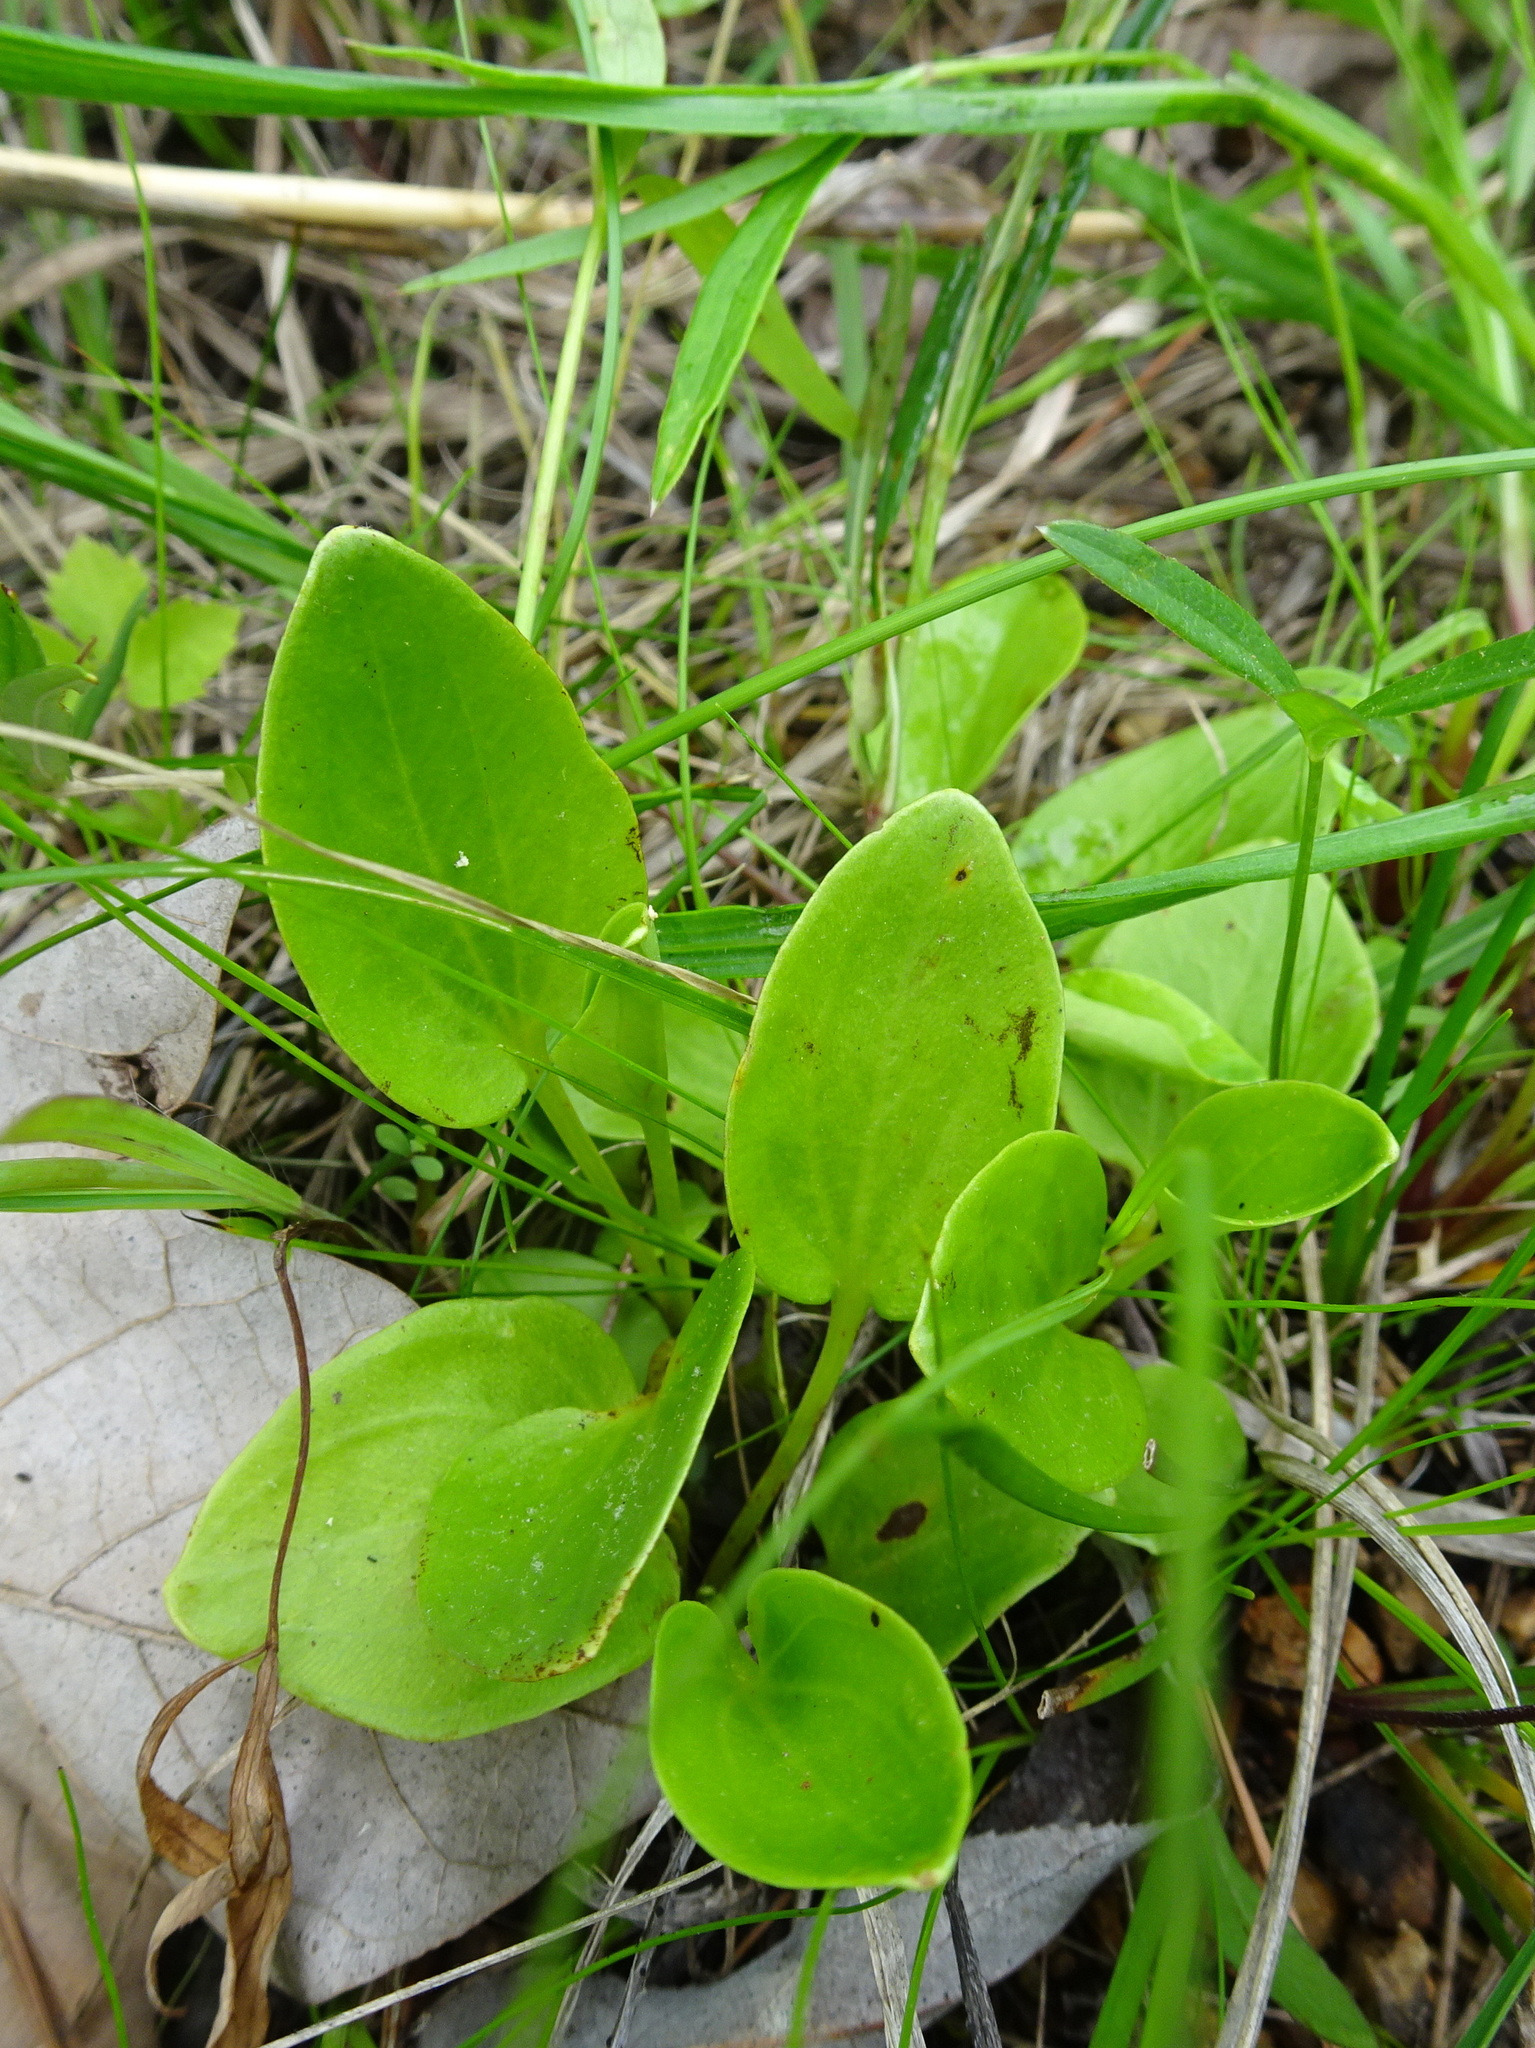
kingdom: Plantae
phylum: Tracheophyta
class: Magnoliopsida
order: Celastrales
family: Parnassiaceae
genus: Parnassia
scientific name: Parnassia grandifolia
